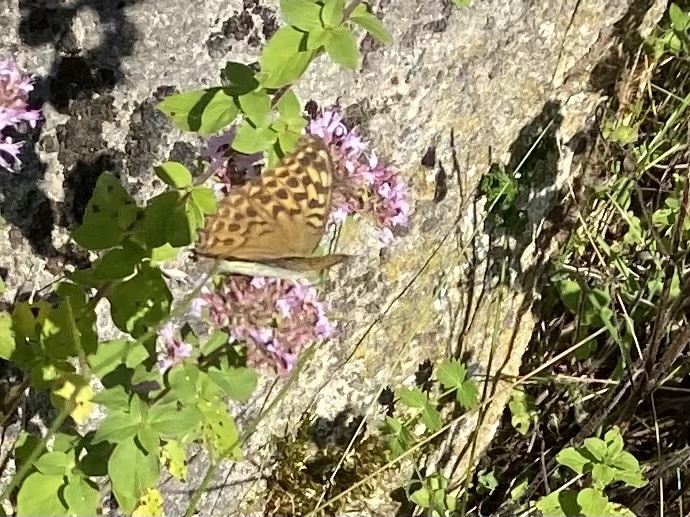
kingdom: Animalia
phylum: Arthropoda
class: Insecta
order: Lepidoptera
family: Nymphalidae
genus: Argynnis
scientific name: Argynnis paphia
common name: Silver-washed fritillary
